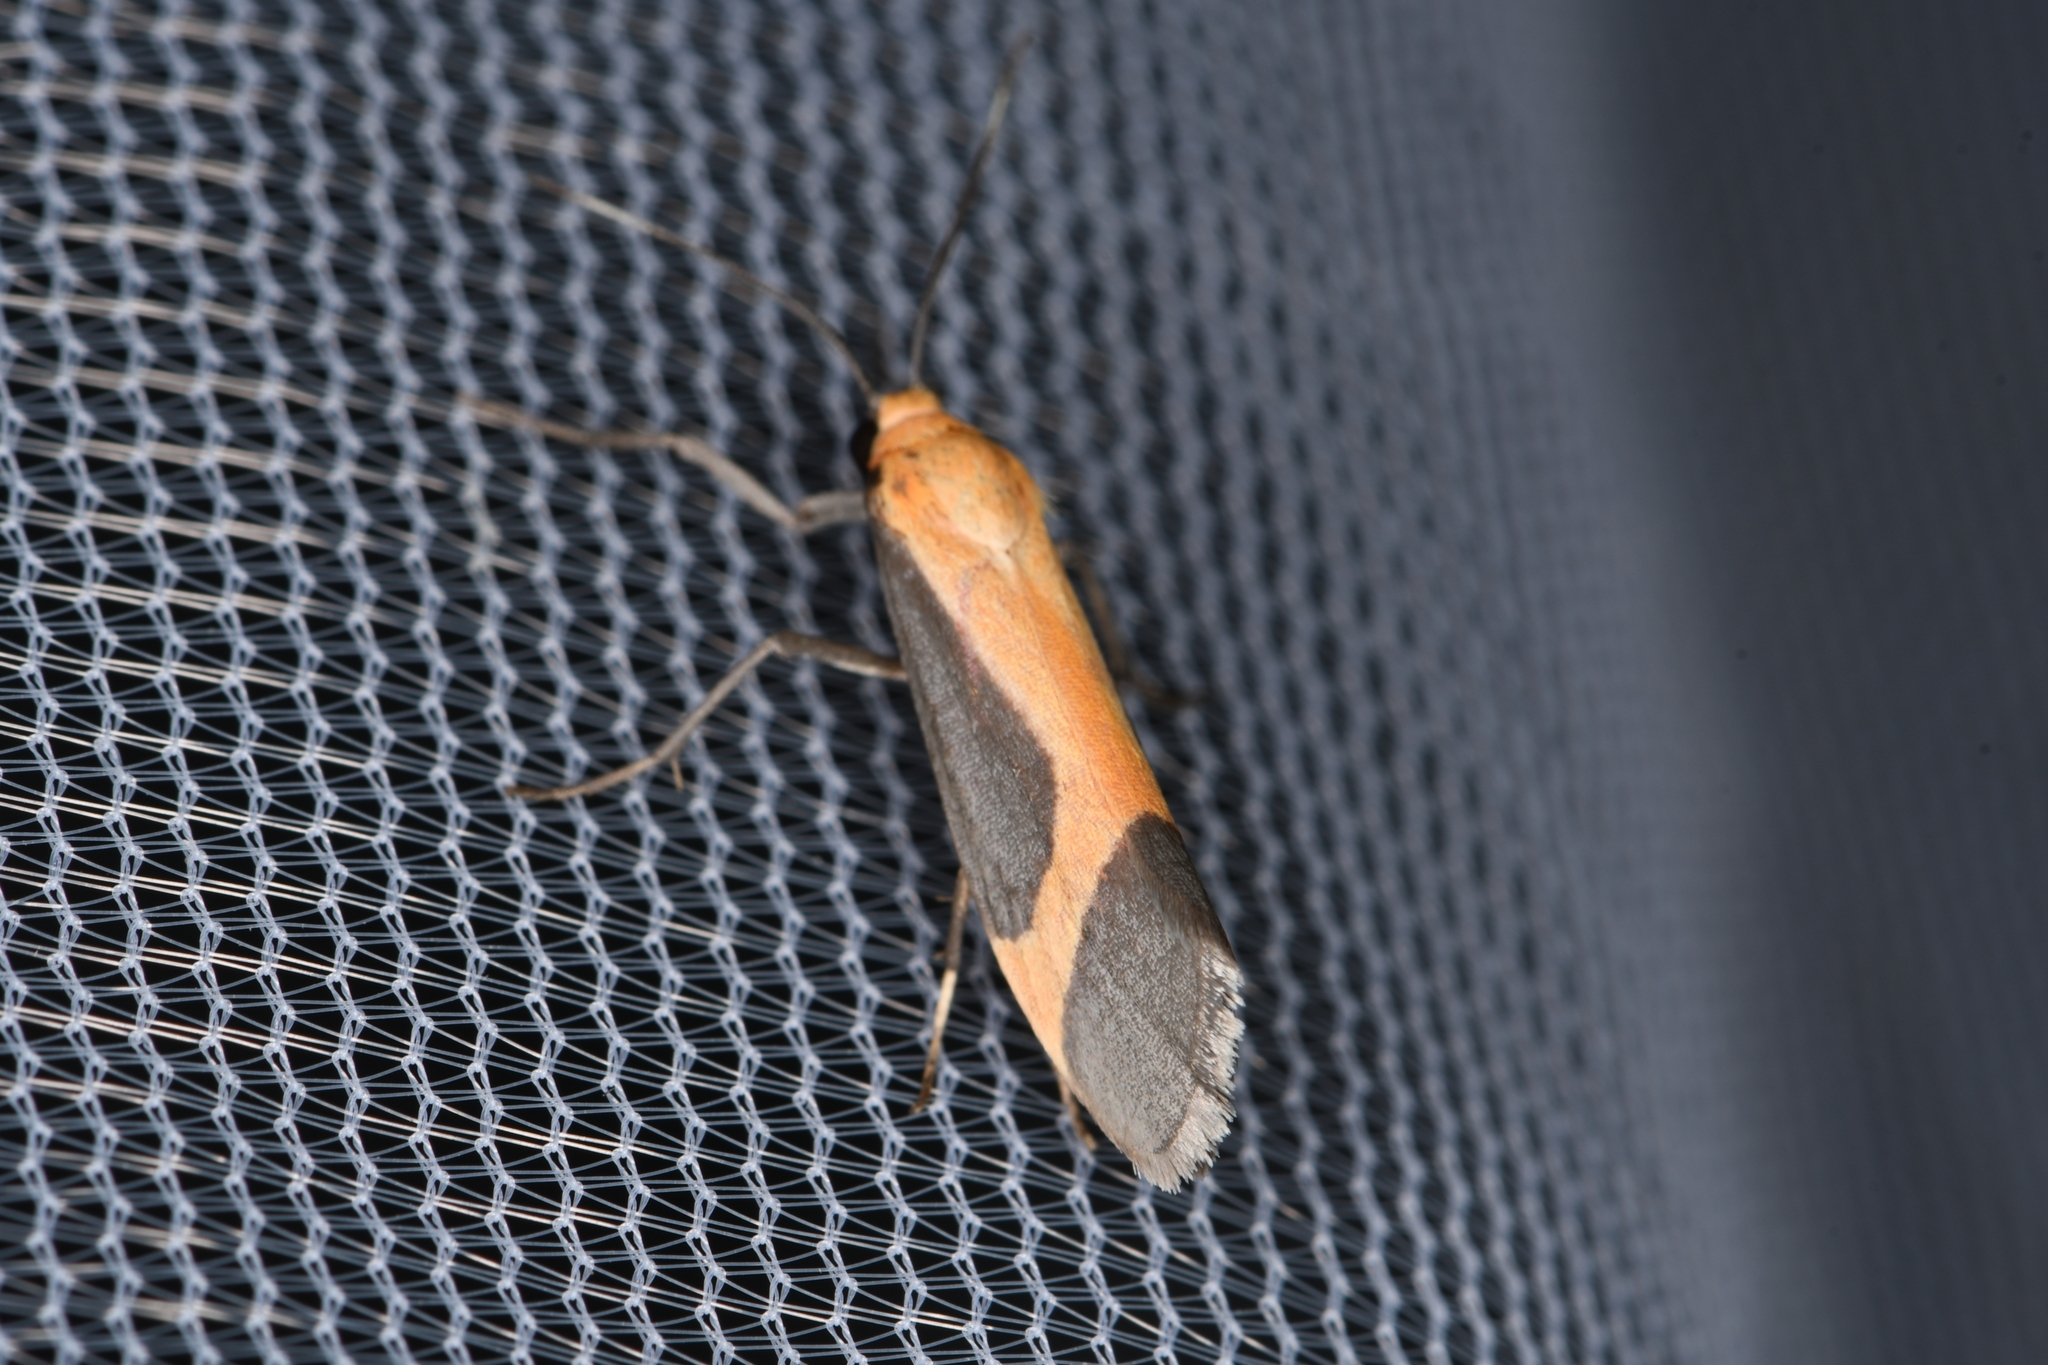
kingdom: Animalia
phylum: Arthropoda
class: Insecta
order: Lepidoptera
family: Erebidae
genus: Cisthene
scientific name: Cisthene angelus
